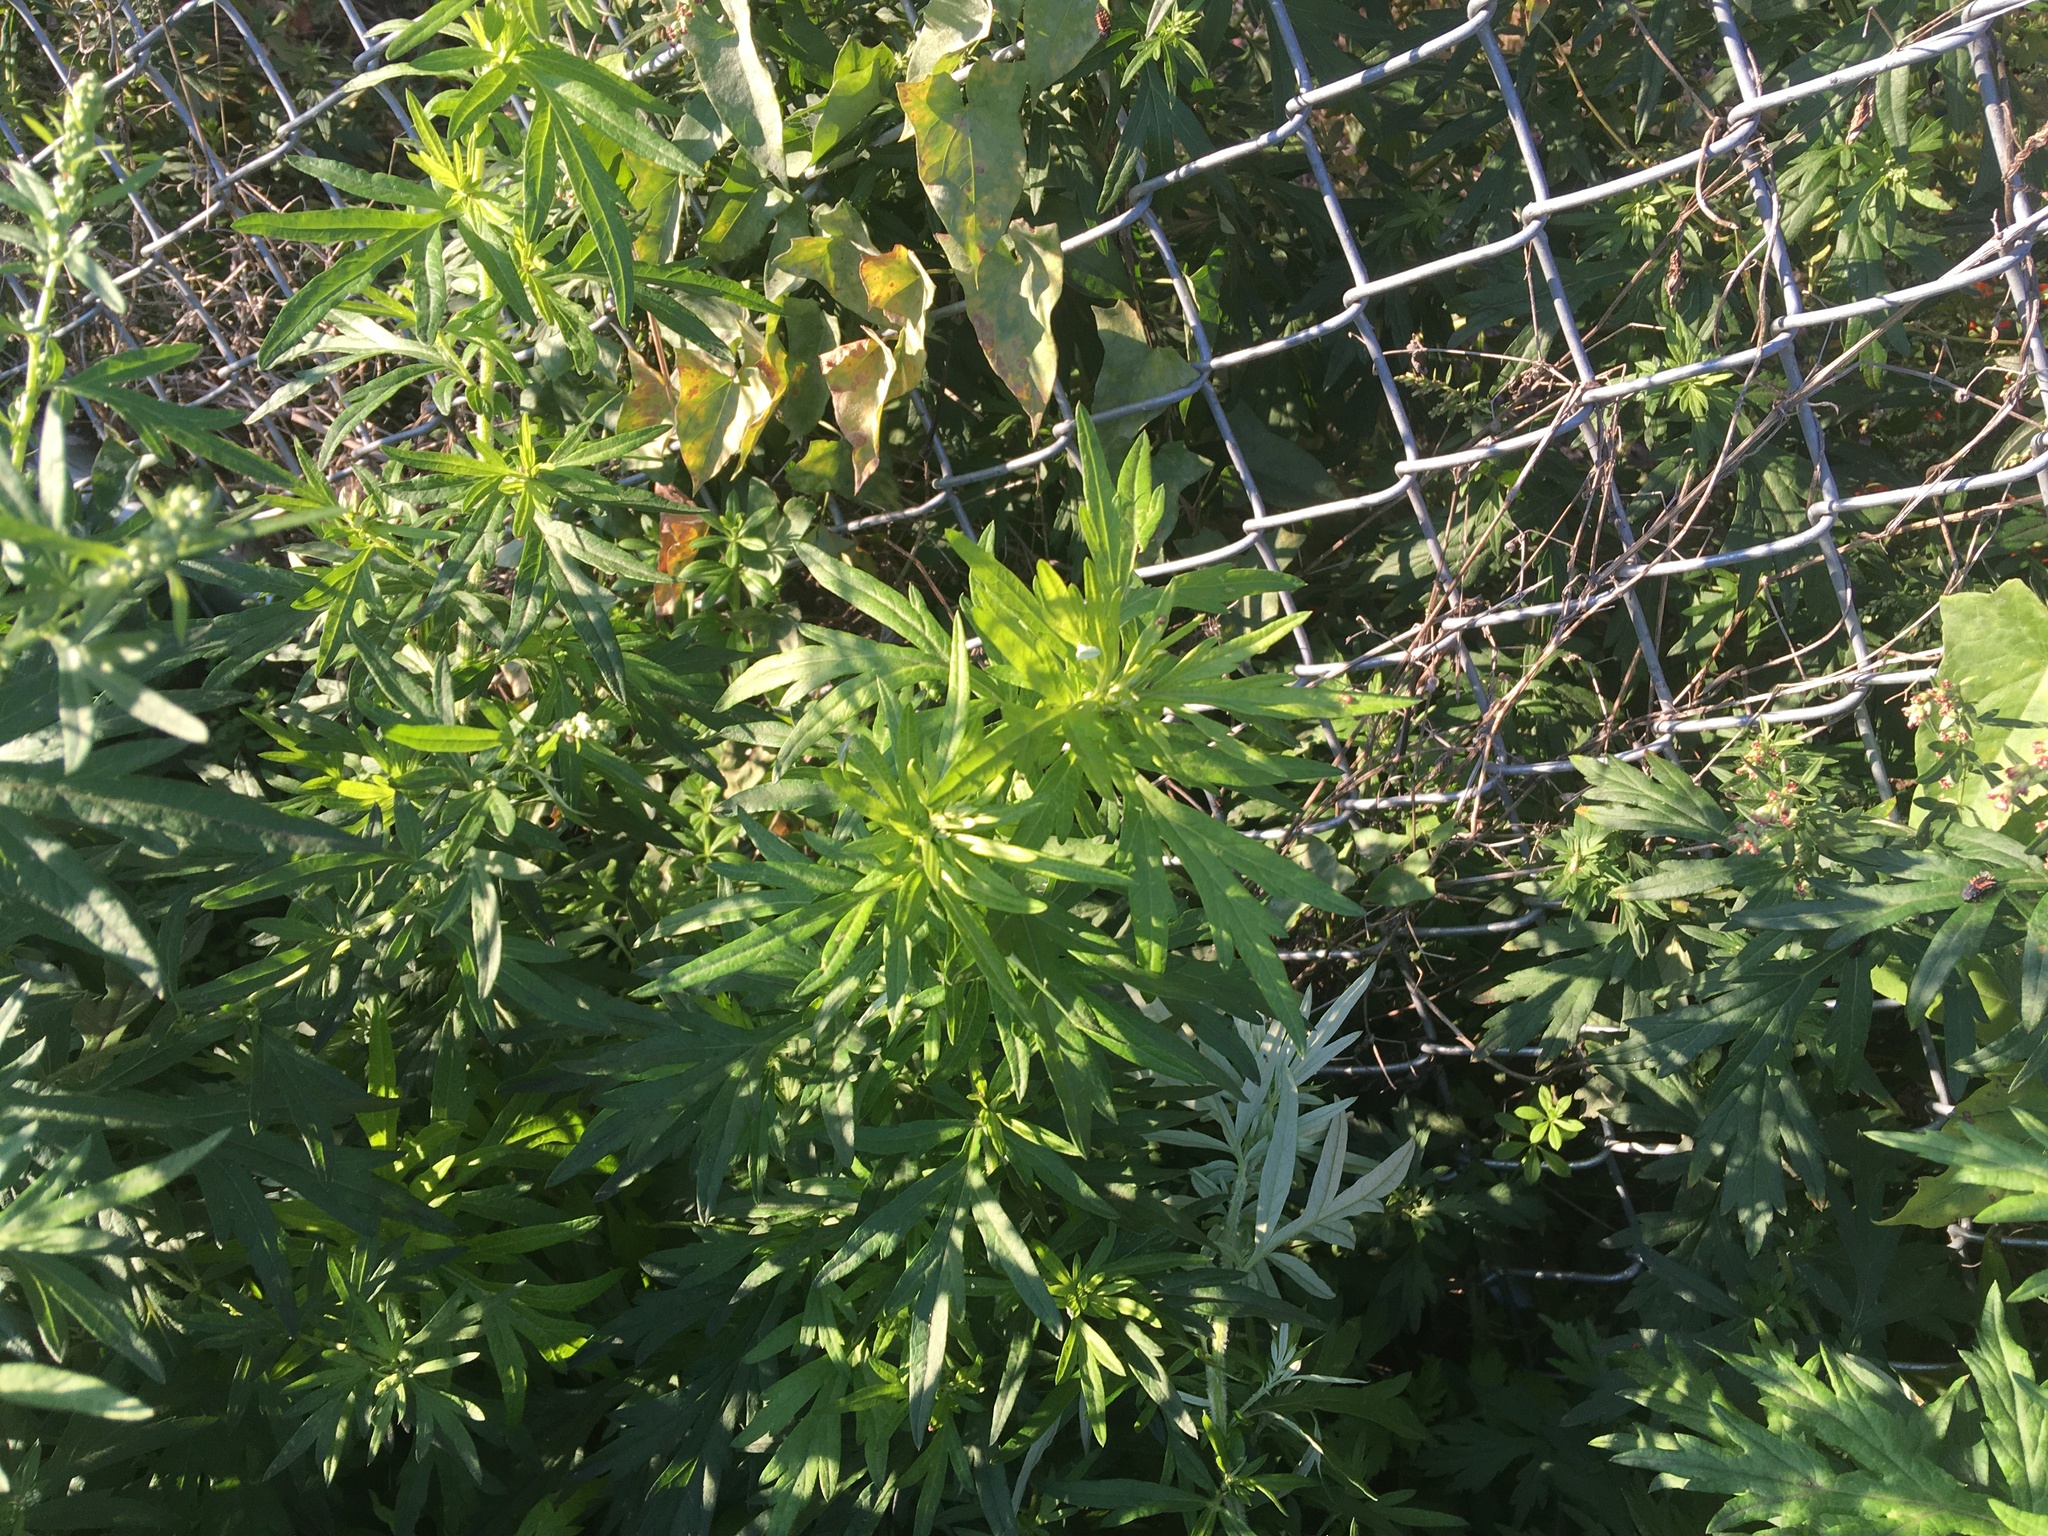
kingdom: Plantae
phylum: Tracheophyta
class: Magnoliopsida
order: Asterales
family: Asteraceae
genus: Artemisia
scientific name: Artemisia vulgaris
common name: Mugwort
